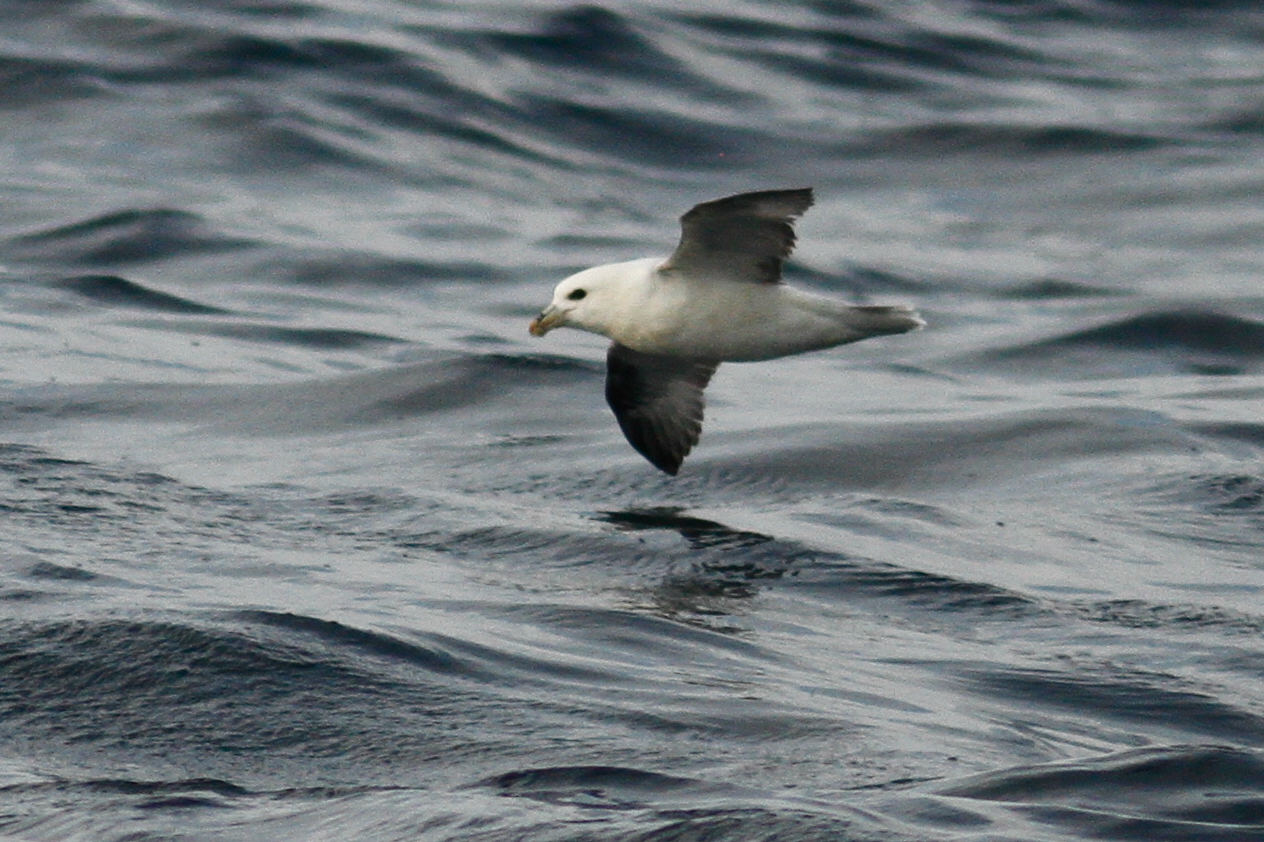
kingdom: Animalia
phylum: Chordata
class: Aves
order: Procellariiformes
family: Procellariidae
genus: Fulmarus
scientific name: Fulmarus glacialis
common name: Northern fulmar
